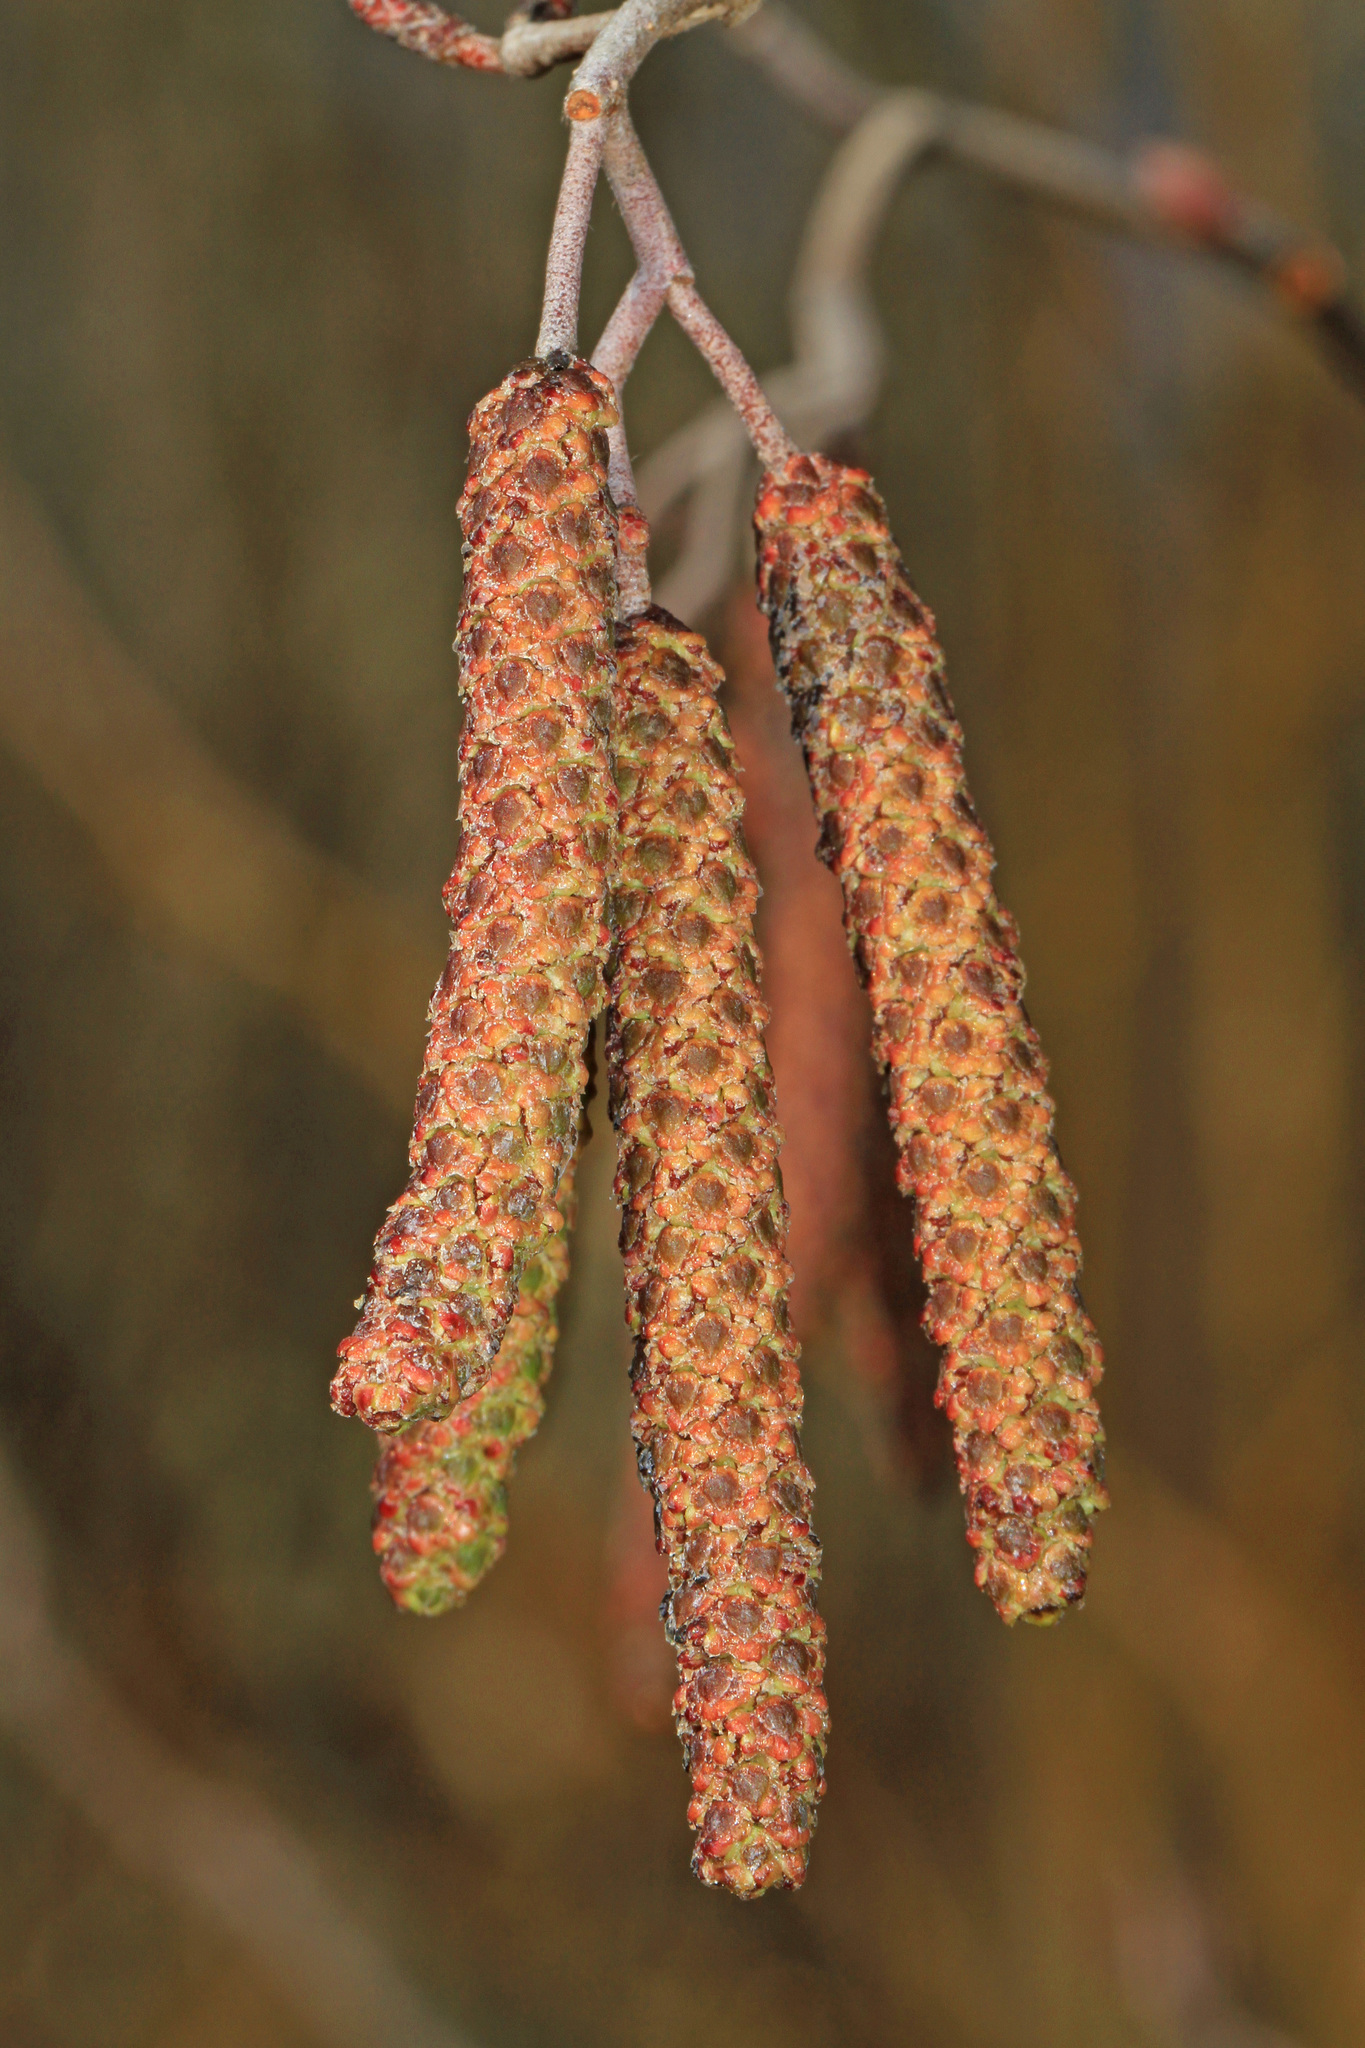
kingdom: Plantae
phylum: Tracheophyta
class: Magnoliopsida
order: Fagales
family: Betulaceae
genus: Alnus
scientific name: Alnus serrulata
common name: Hazel alder
